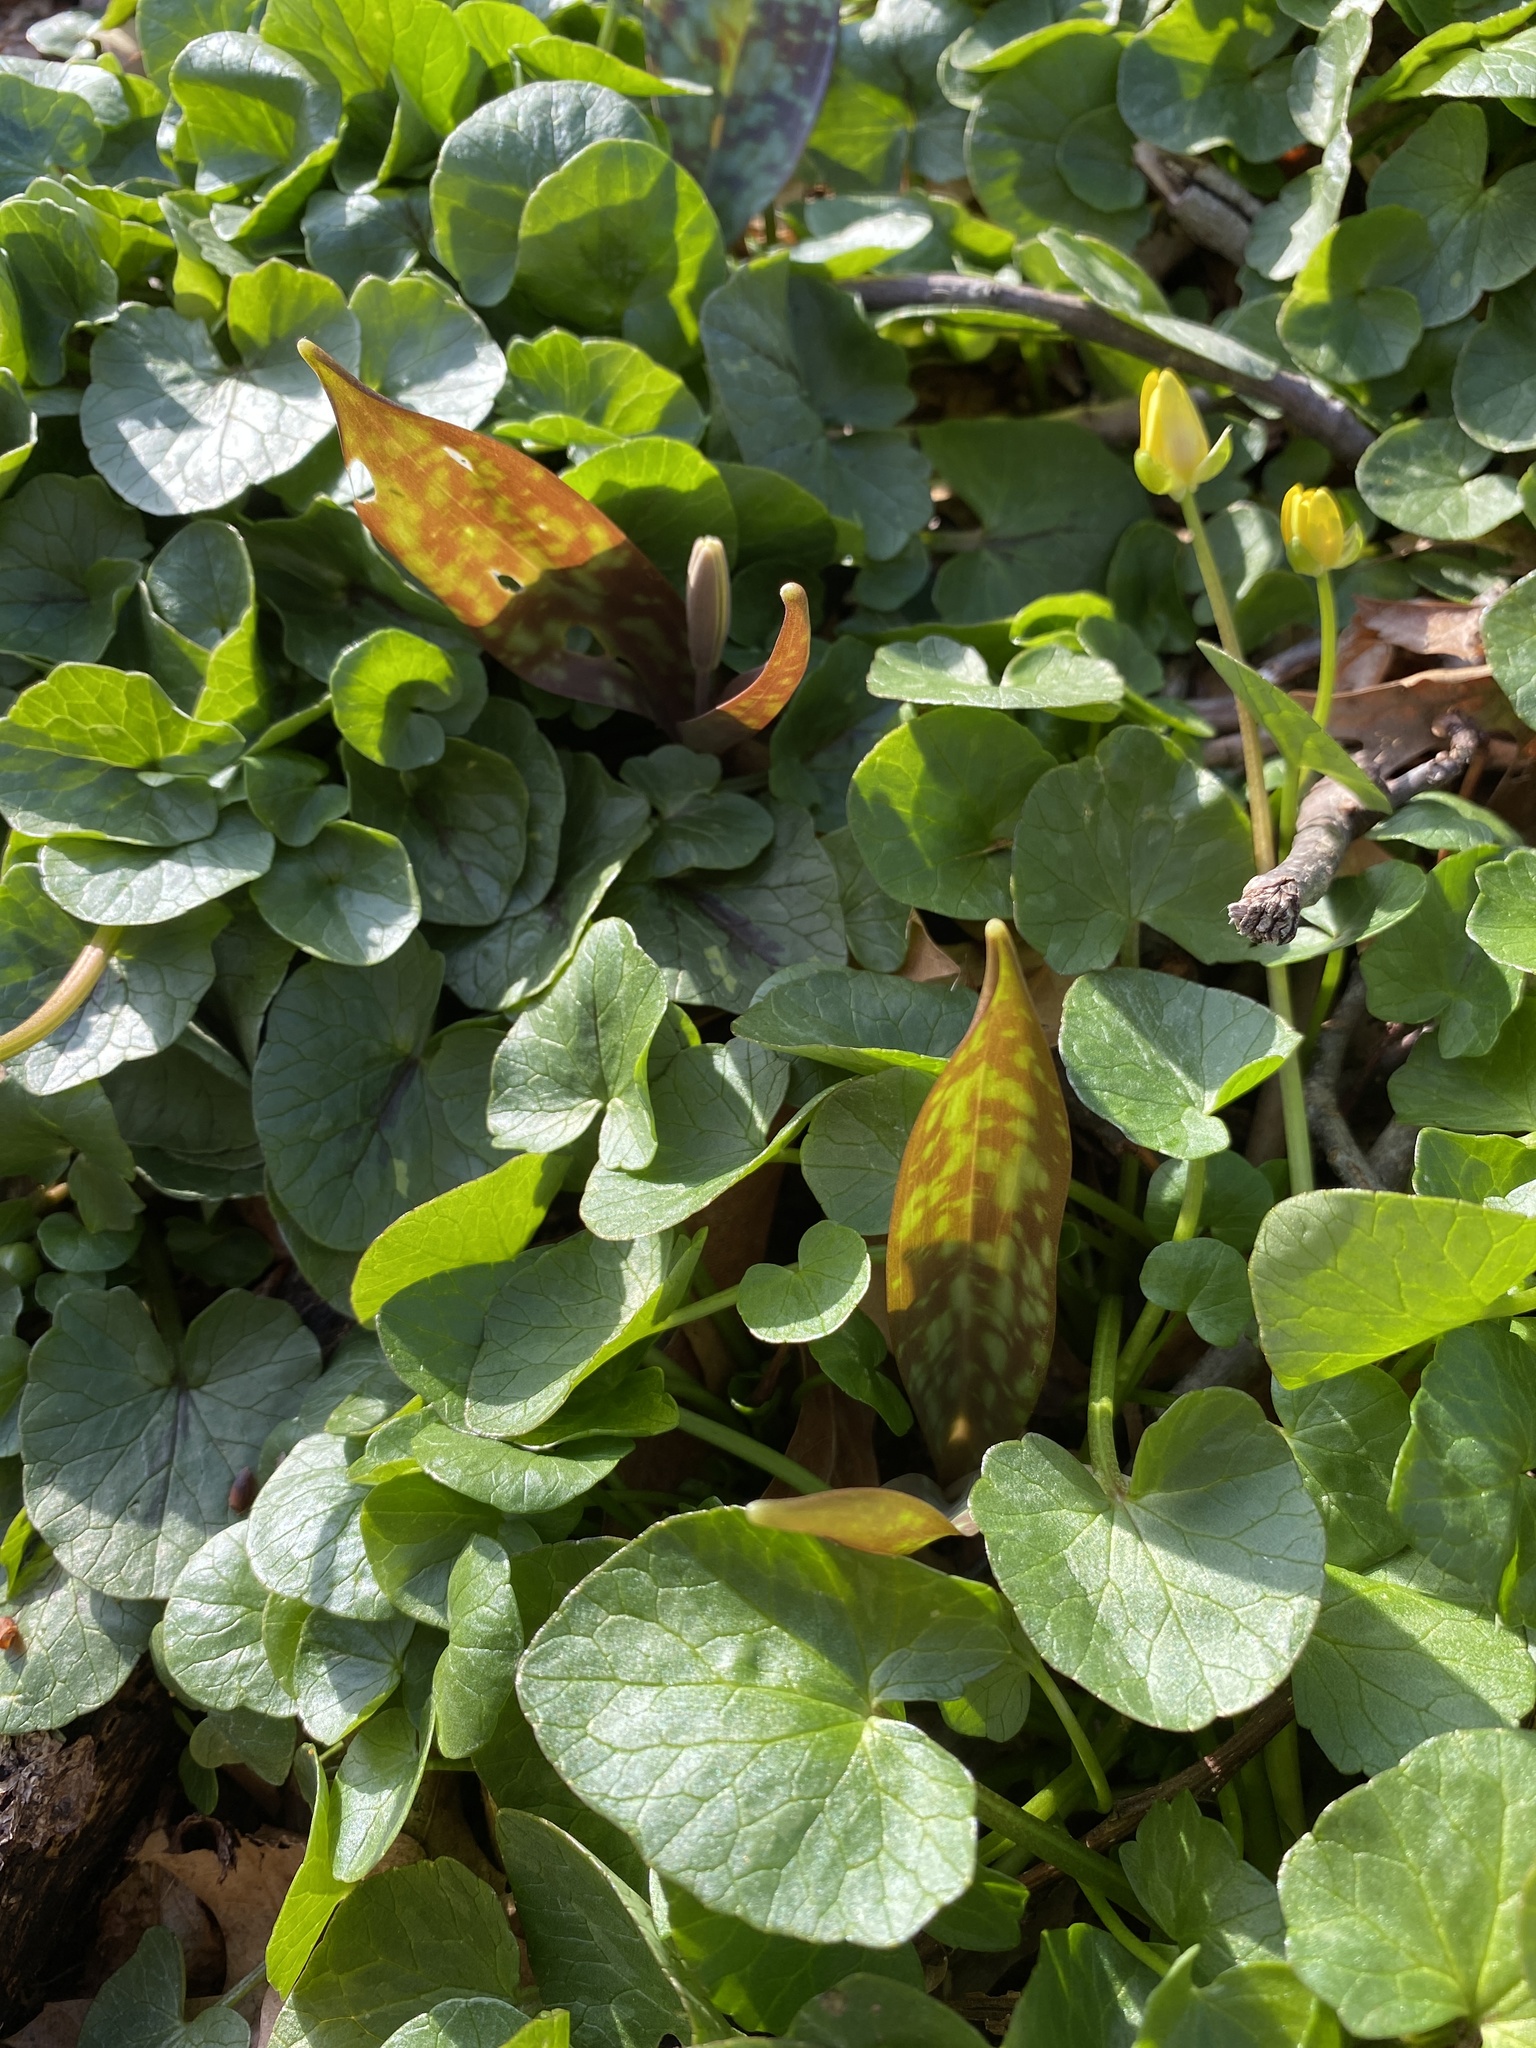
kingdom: Plantae
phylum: Tracheophyta
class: Liliopsida
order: Liliales
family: Liliaceae
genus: Erythronium
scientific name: Erythronium americanum
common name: Yellow adder's-tongue
